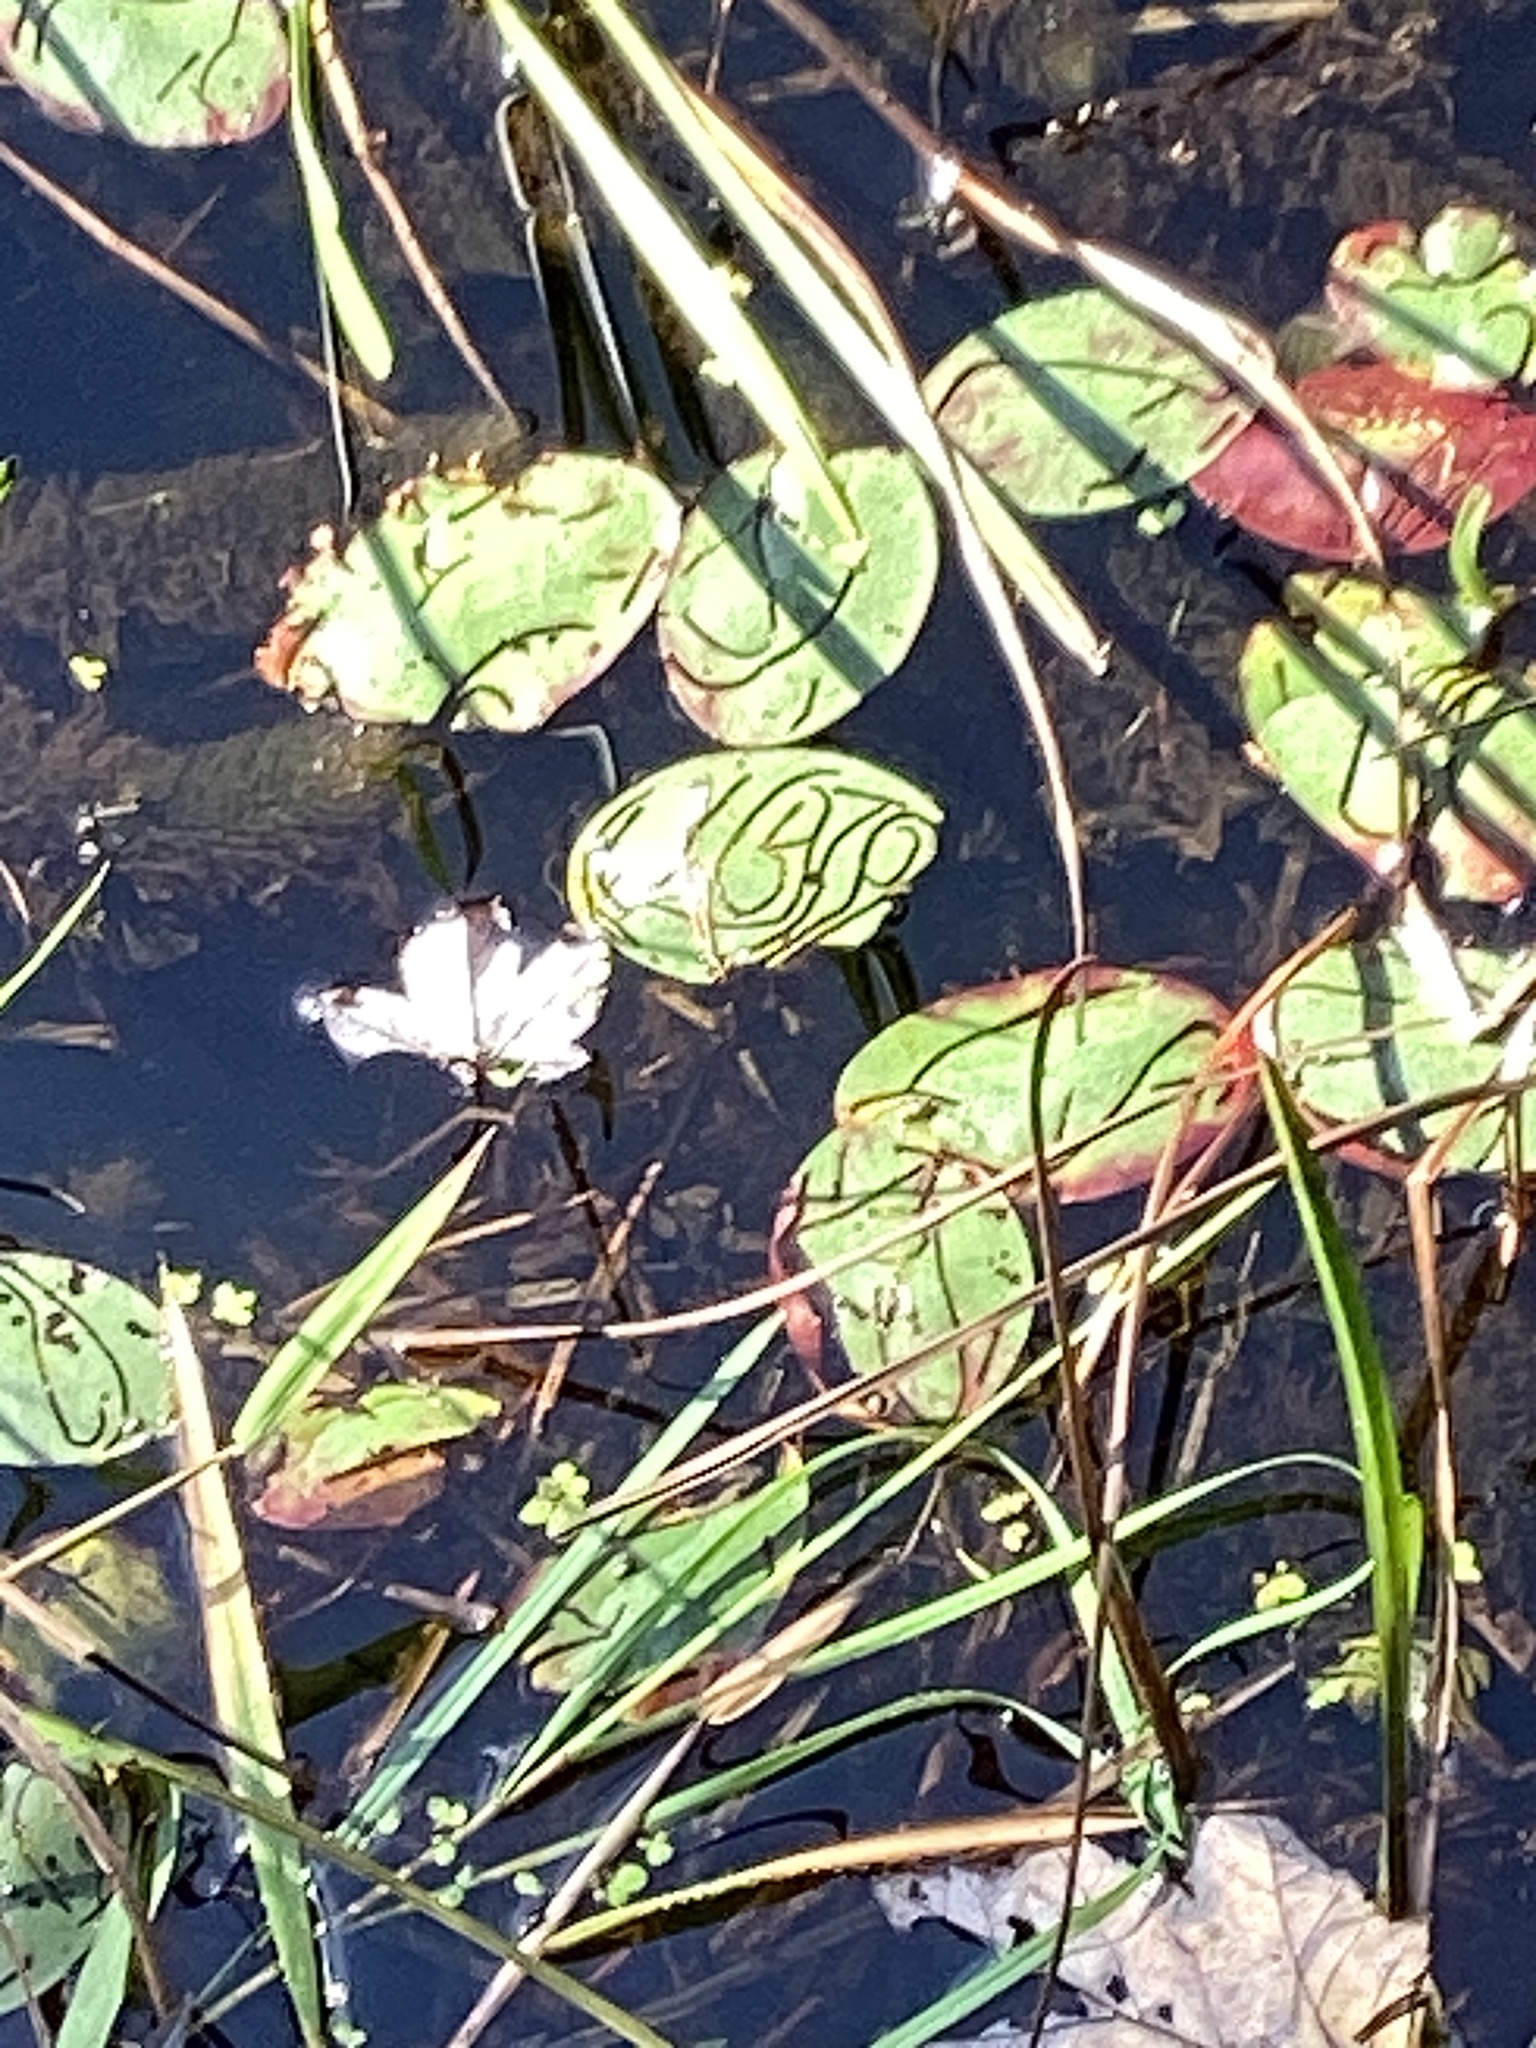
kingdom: Animalia
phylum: Arthropoda
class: Insecta
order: Diptera
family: Chironomidae
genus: Polypedilum
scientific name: Polypedilum braseniae
